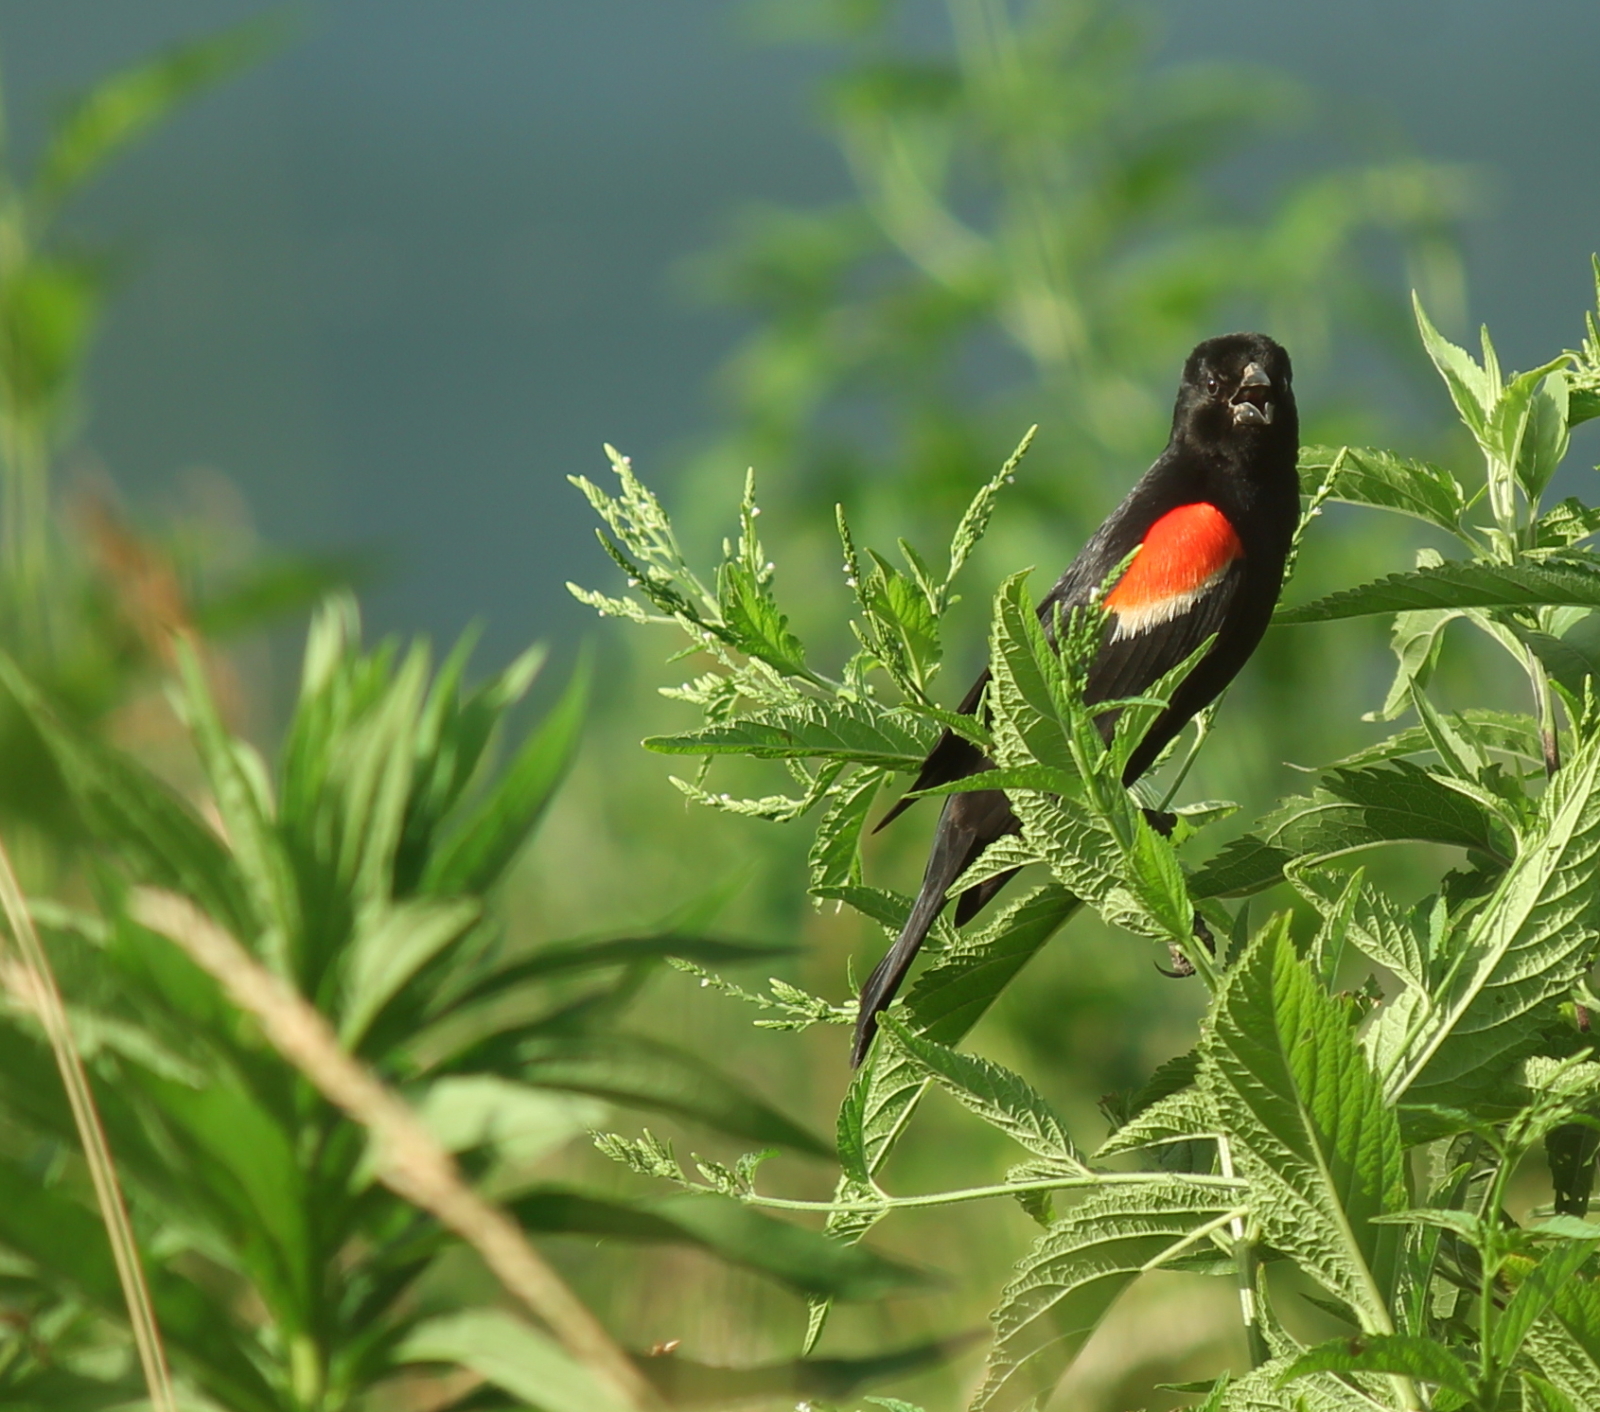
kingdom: Animalia
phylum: Chordata
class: Aves
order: Passeriformes
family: Icteridae
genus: Agelaius
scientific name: Agelaius phoeniceus
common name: Red-winged blackbird
